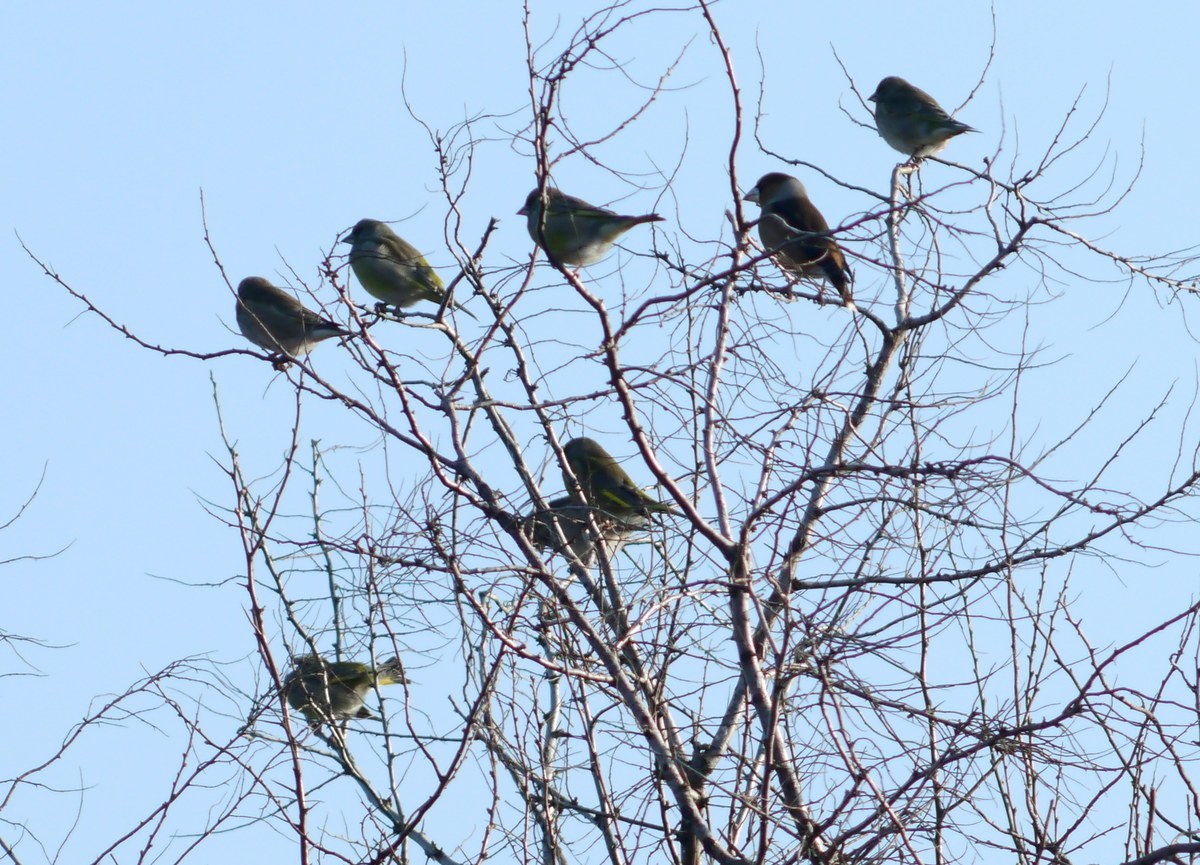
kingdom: Plantae
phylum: Tracheophyta
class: Liliopsida
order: Poales
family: Poaceae
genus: Chloris
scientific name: Chloris chloris
